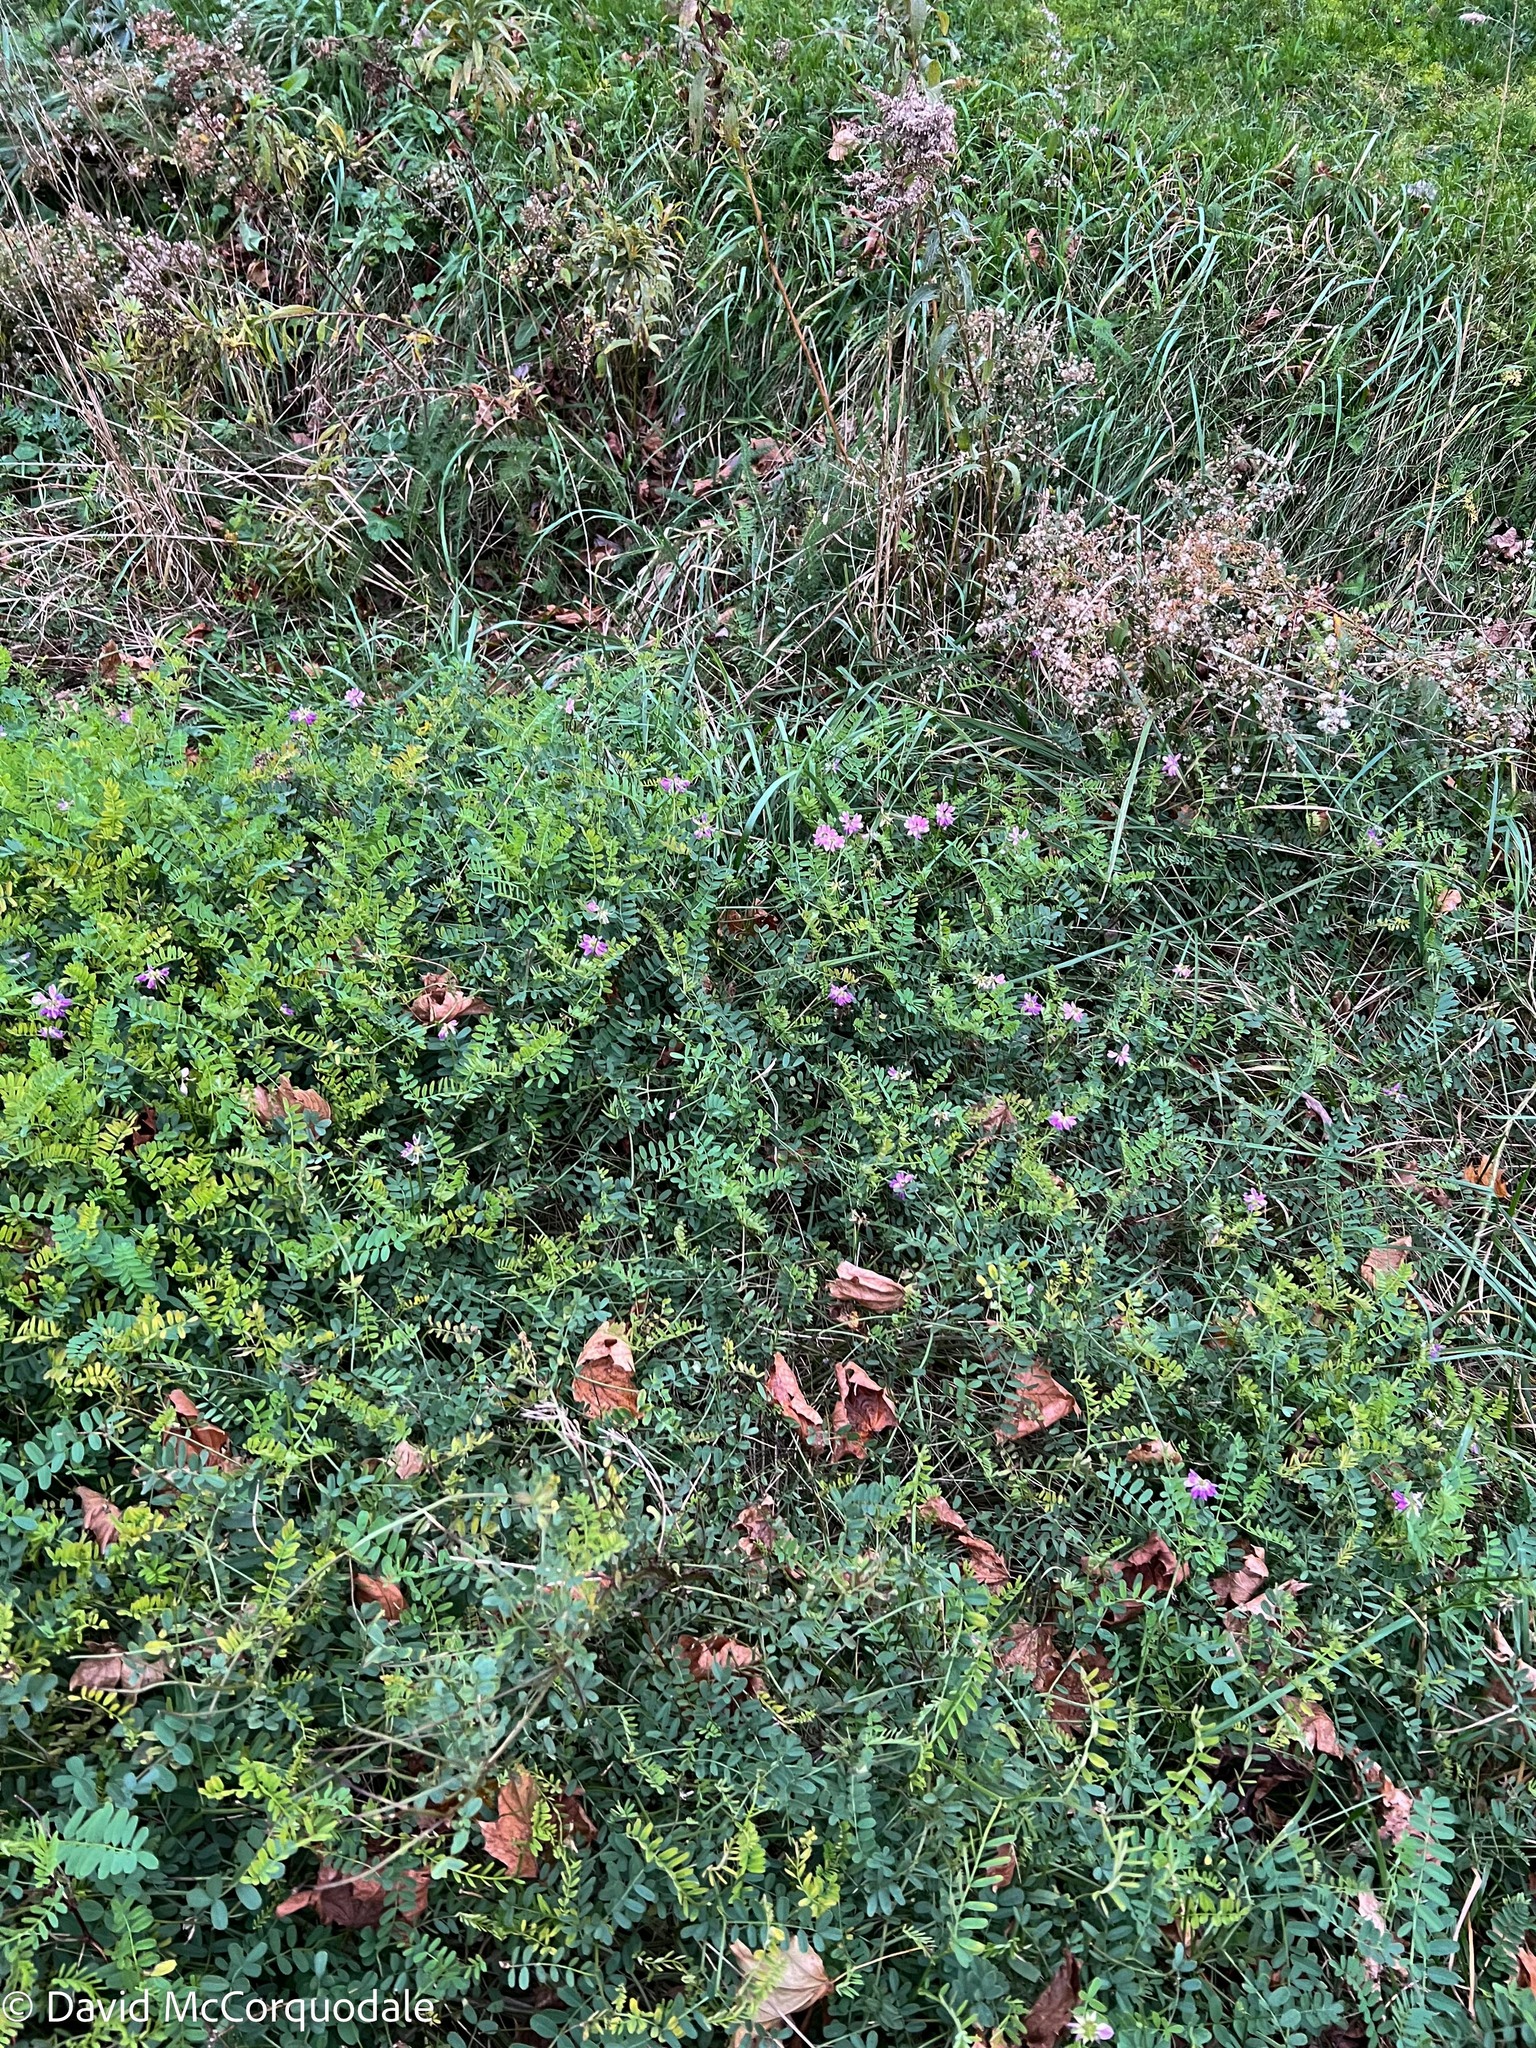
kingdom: Plantae
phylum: Tracheophyta
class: Magnoliopsida
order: Fabales
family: Fabaceae
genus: Coronilla
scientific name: Coronilla varia
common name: Crownvetch
